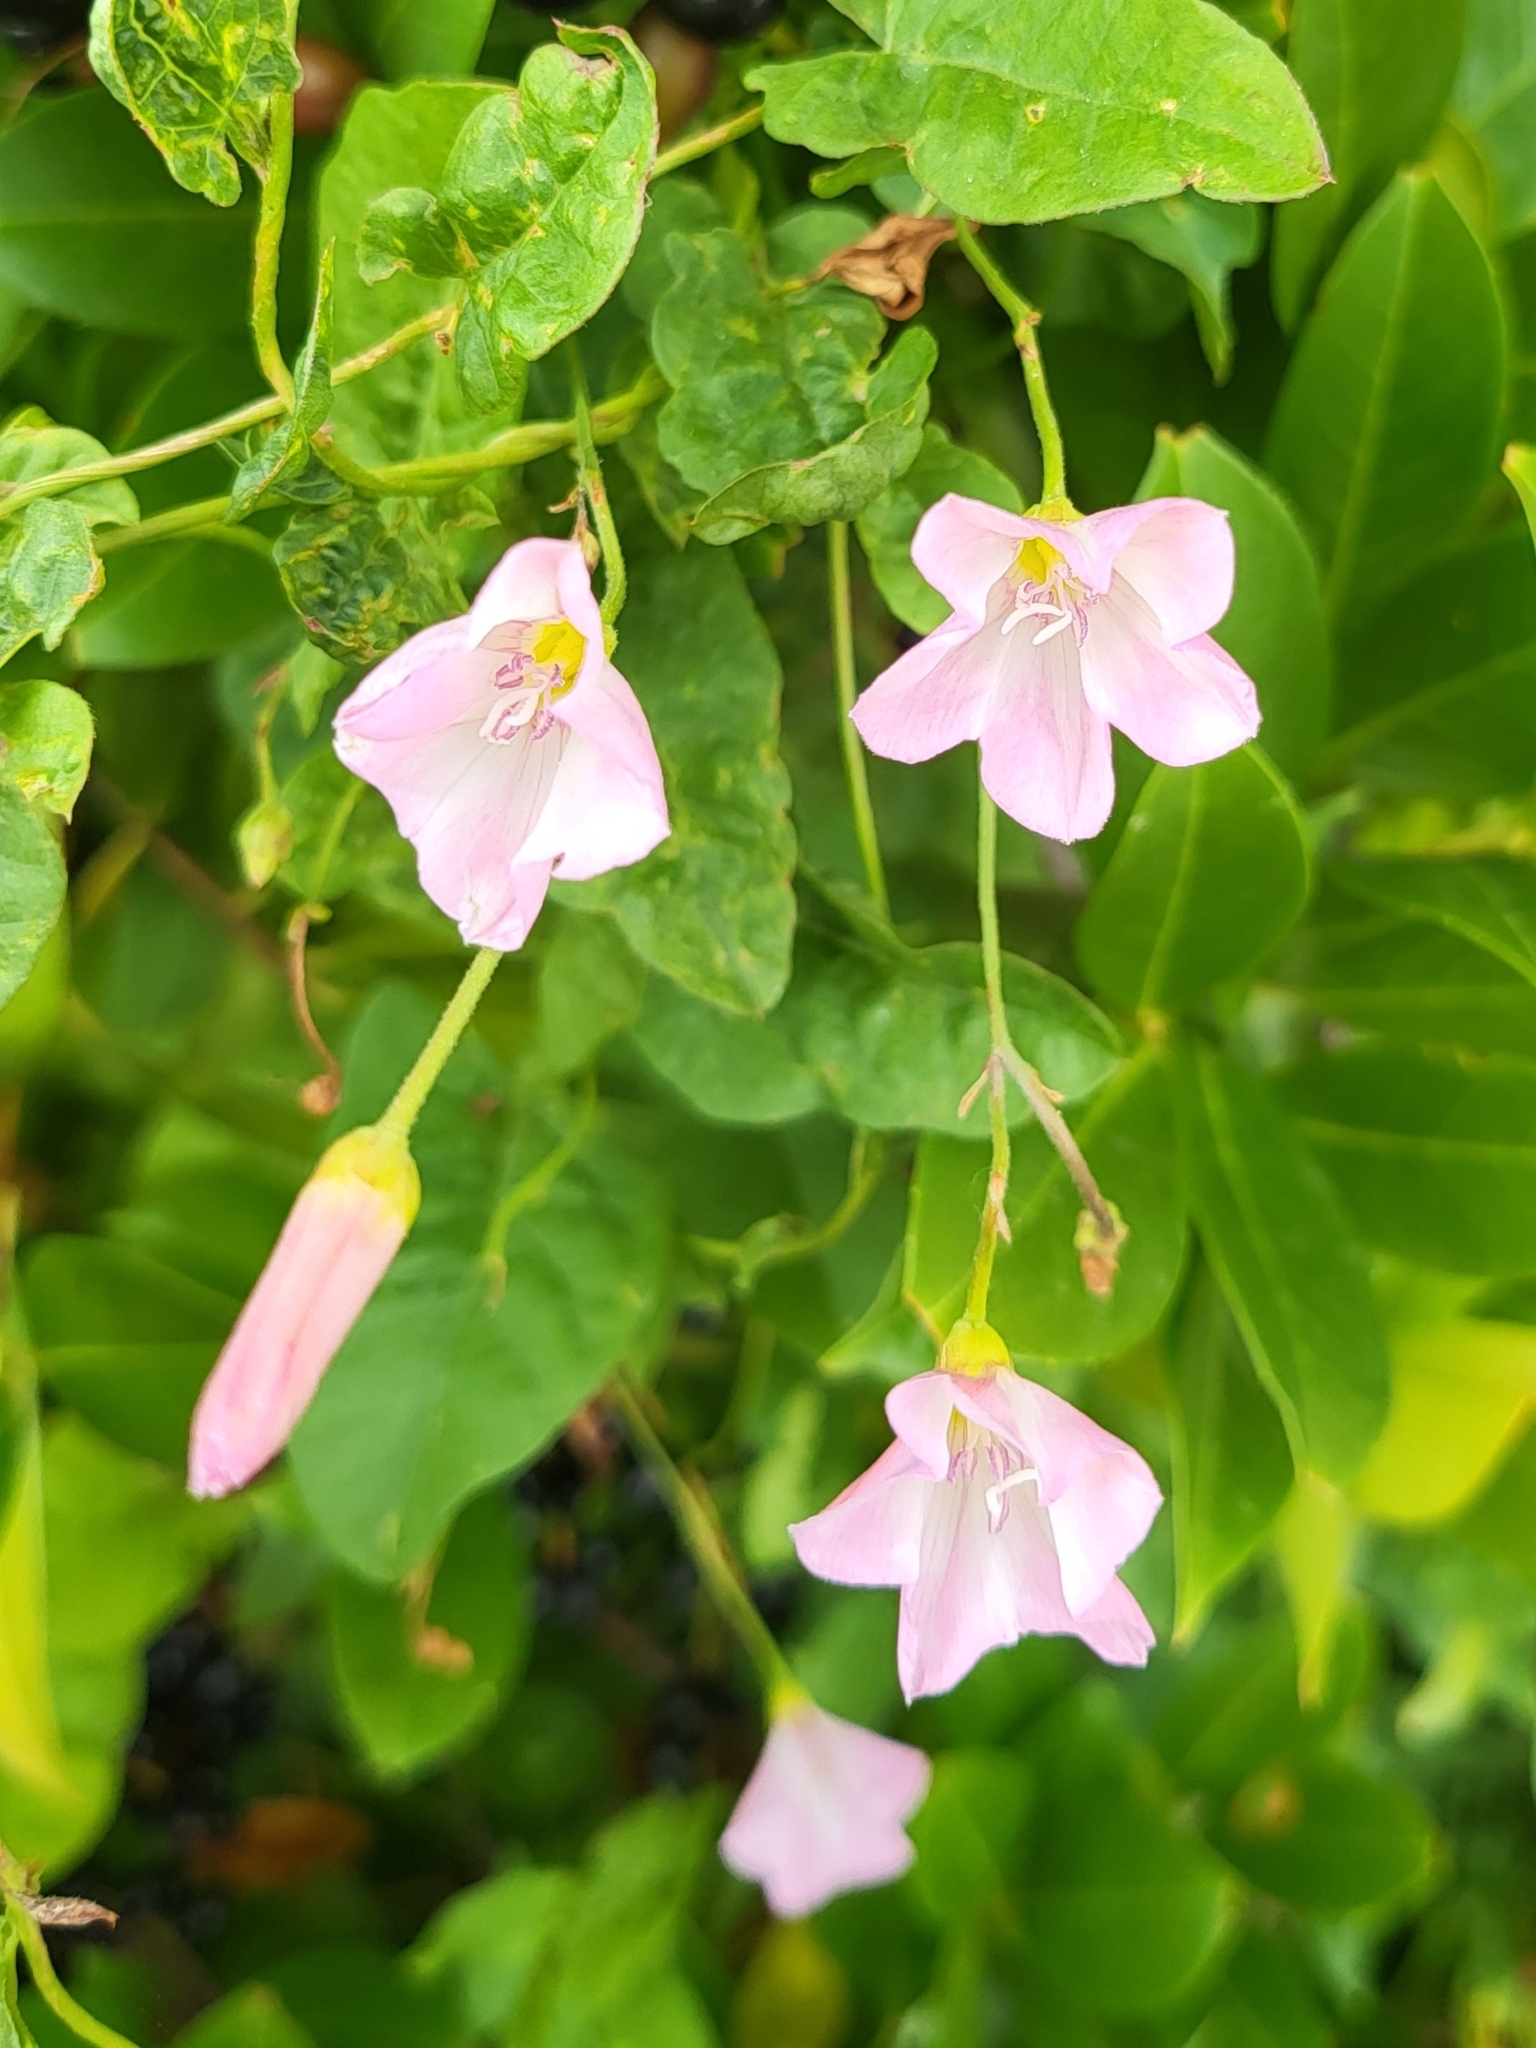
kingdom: Plantae
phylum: Tracheophyta
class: Magnoliopsida
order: Solanales
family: Convolvulaceae
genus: Convolvulus
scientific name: Convolvulus arvensis
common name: Field bindweed
